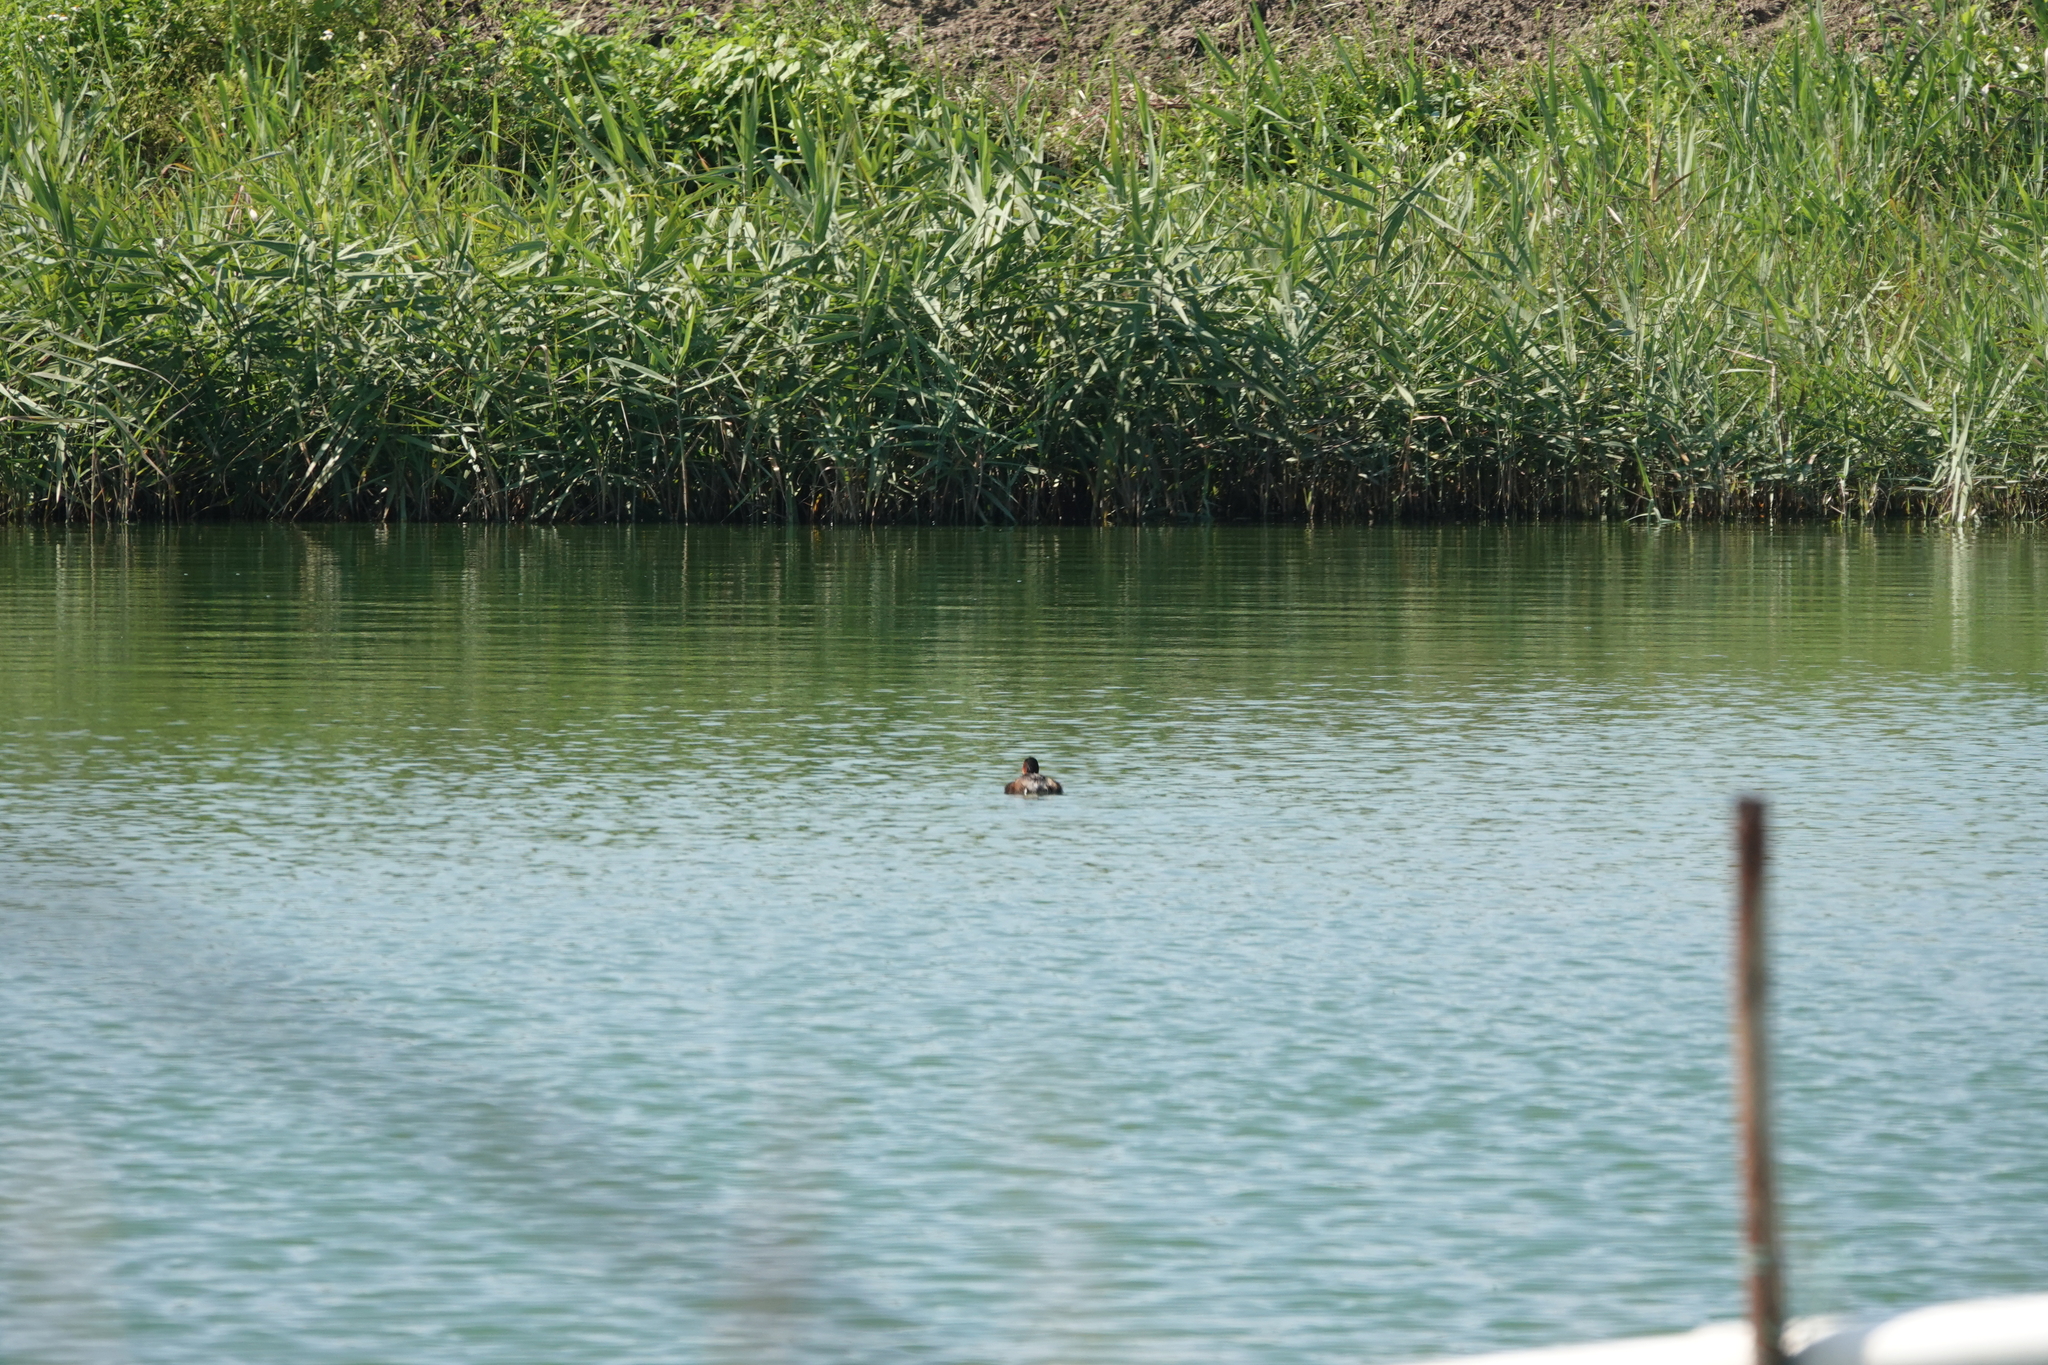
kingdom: Animalia
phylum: Chordata
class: Aves
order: Podicipediformes
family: Podicipedidae
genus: Tachybaptus
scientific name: Tachybaptus ruficollis
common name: Little grebe
